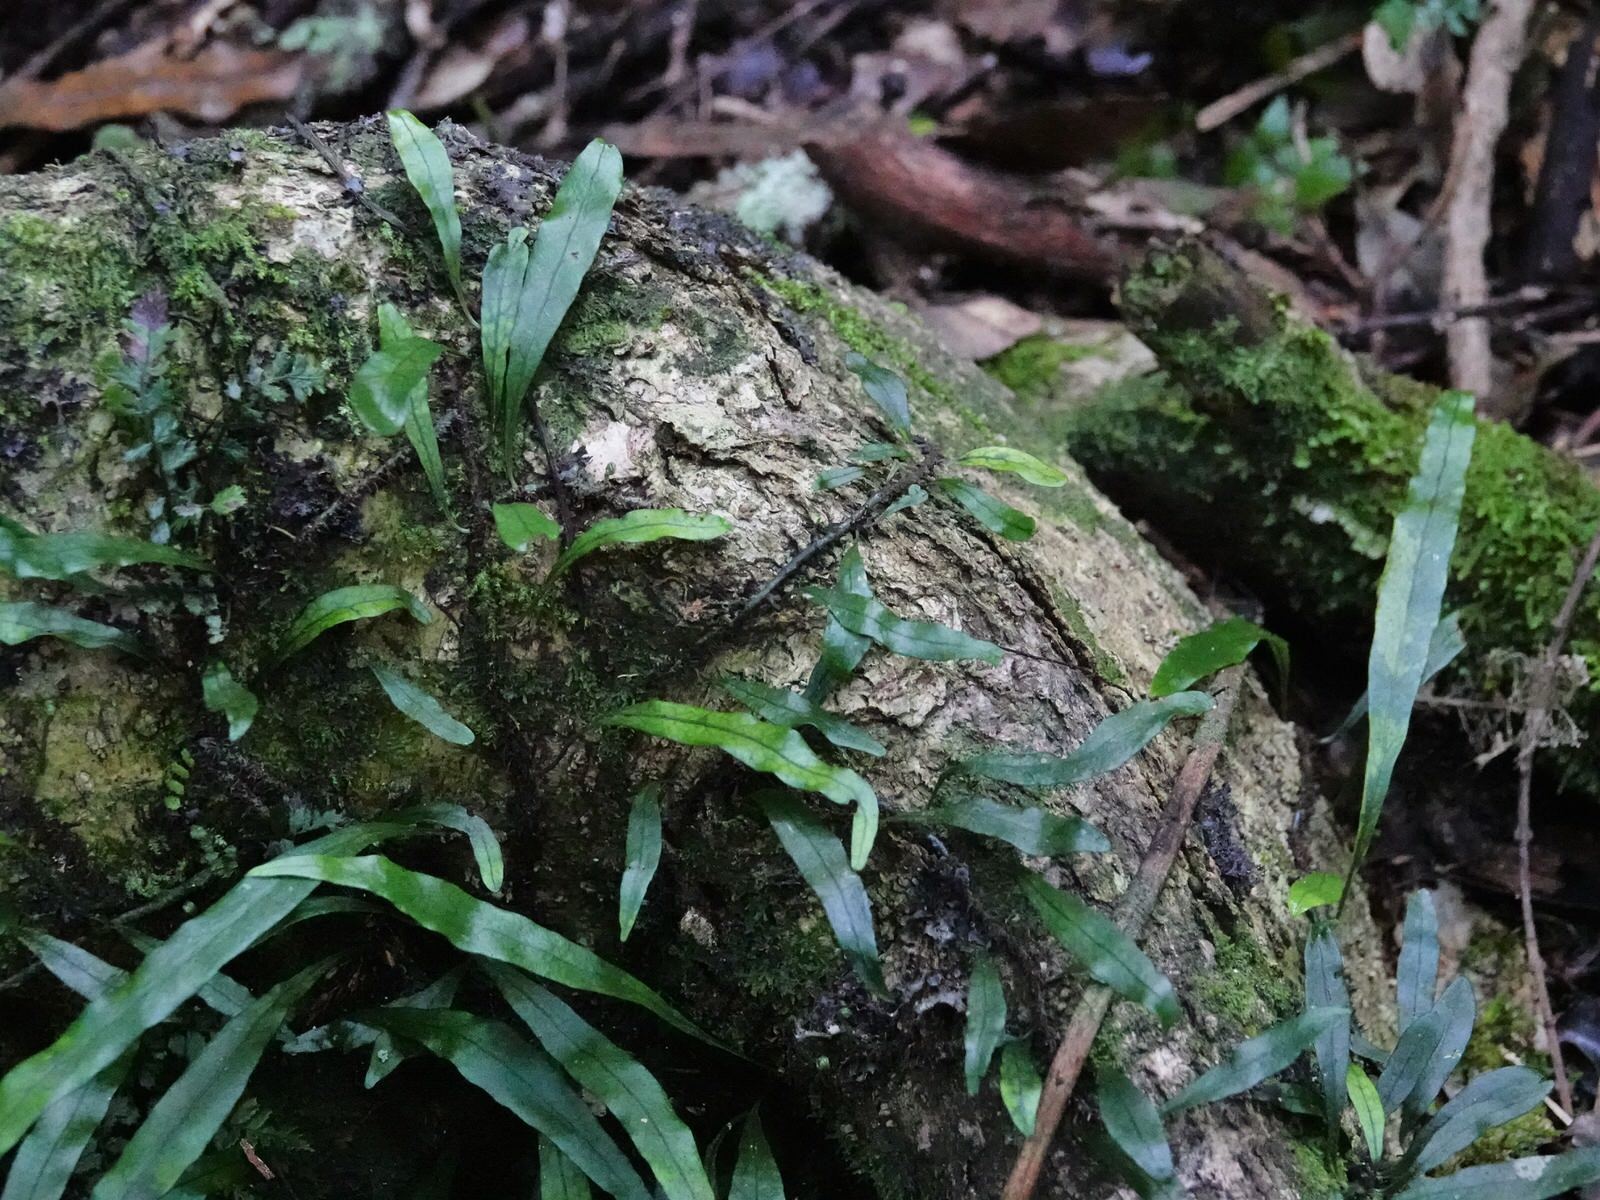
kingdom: Plantae
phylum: Tracheophyta
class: Polypodiopsida
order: Polypodiales
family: Polypodiaceae
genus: Lecanopteris
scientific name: Lecanopteris scandens
